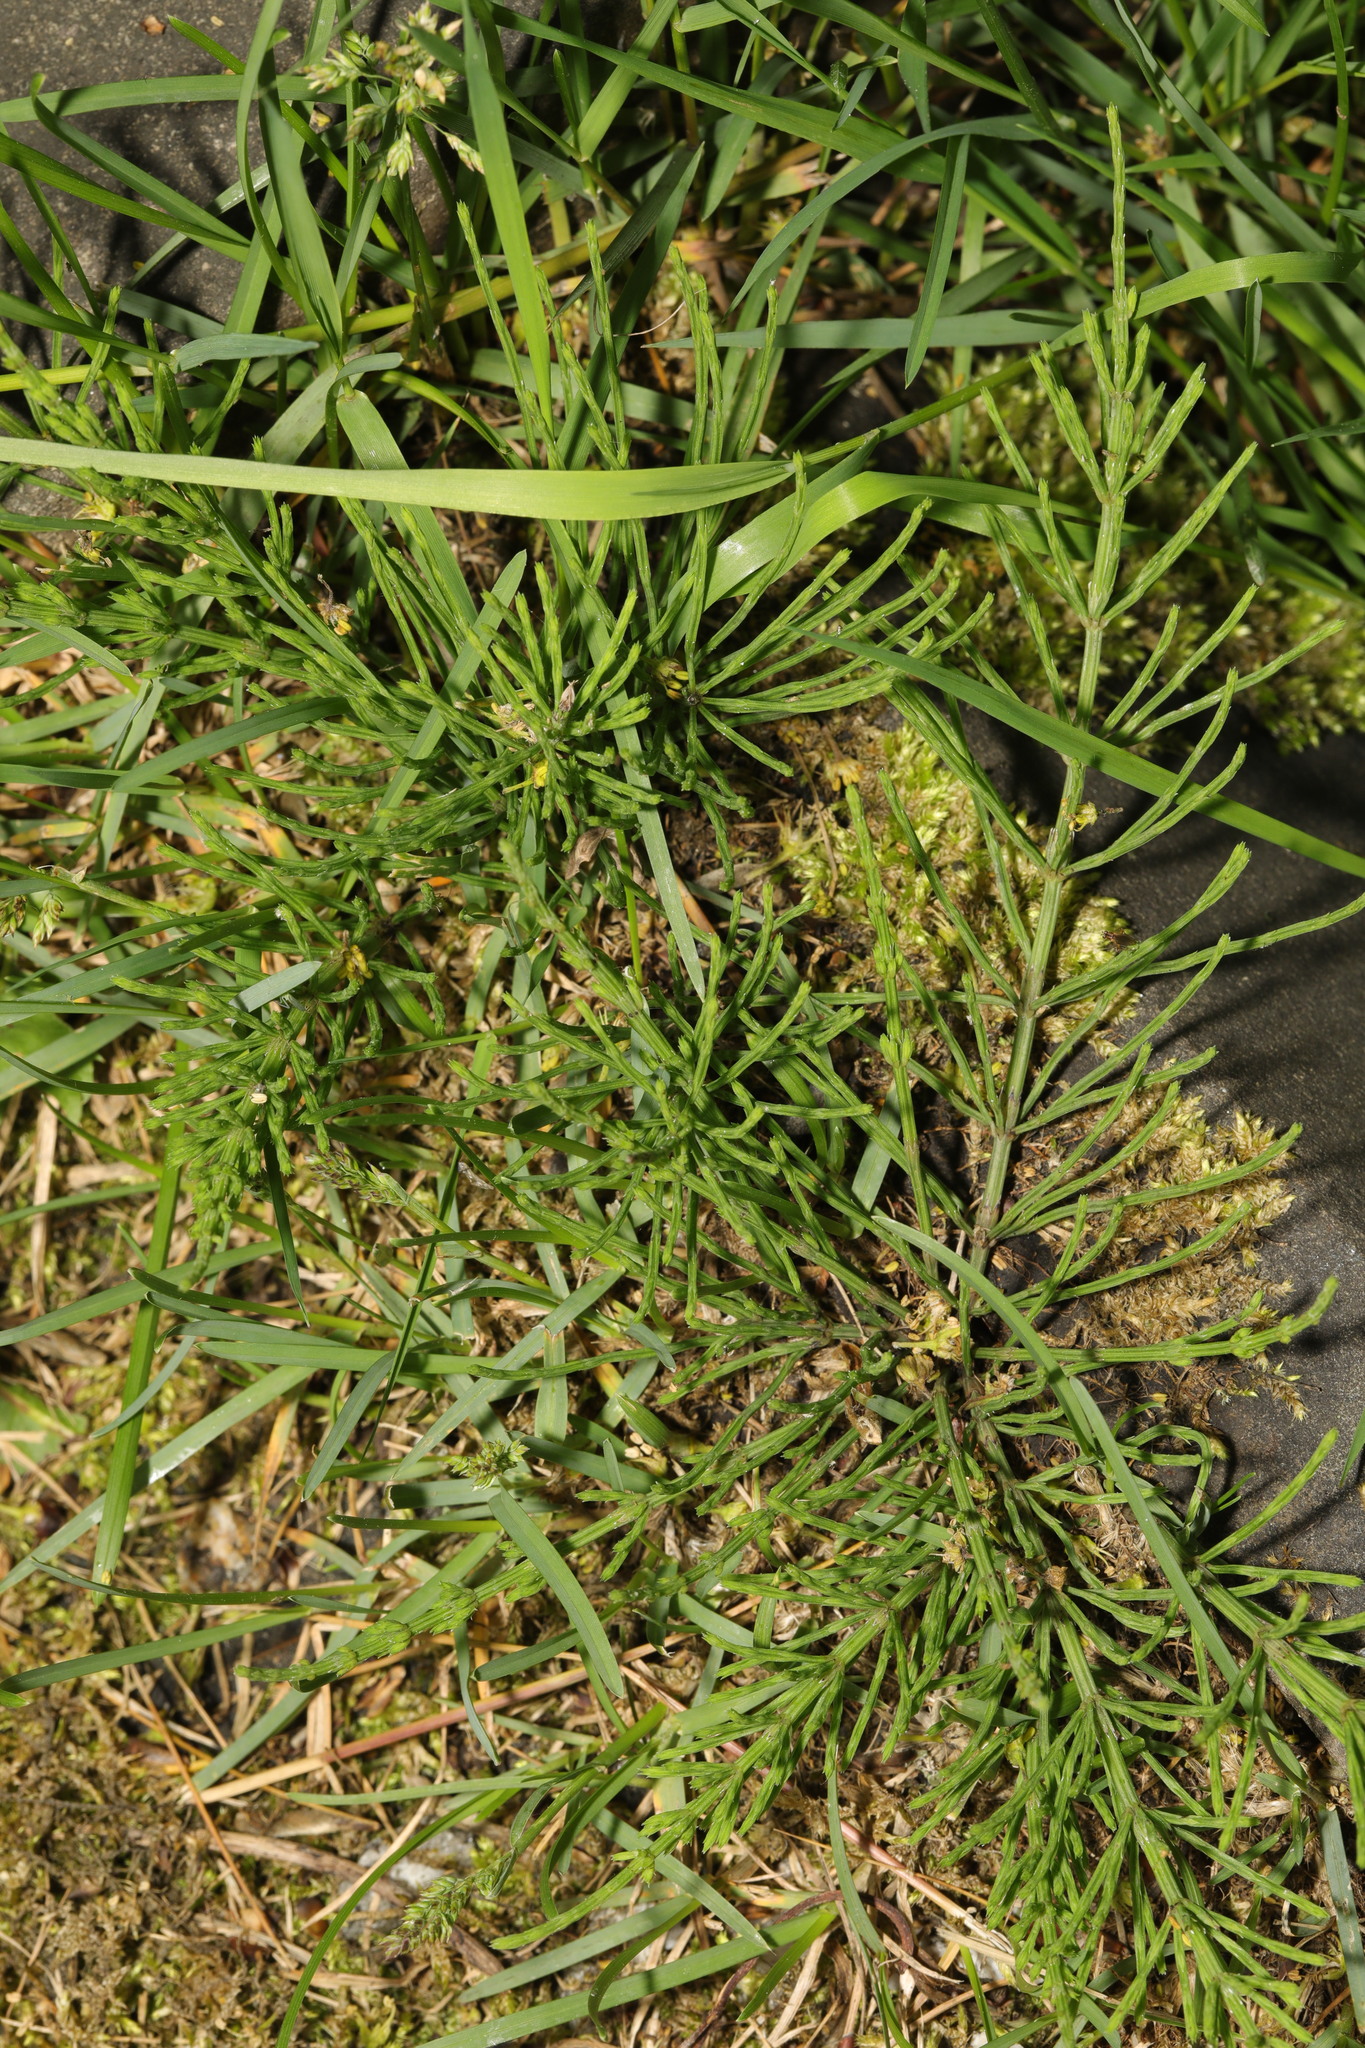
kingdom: Plantae
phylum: Tracheophyta
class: Polypodiopsida
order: Equisetales
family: Equisetaceae
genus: Equisetum
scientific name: Equisetum arvense
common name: Field horsetail
